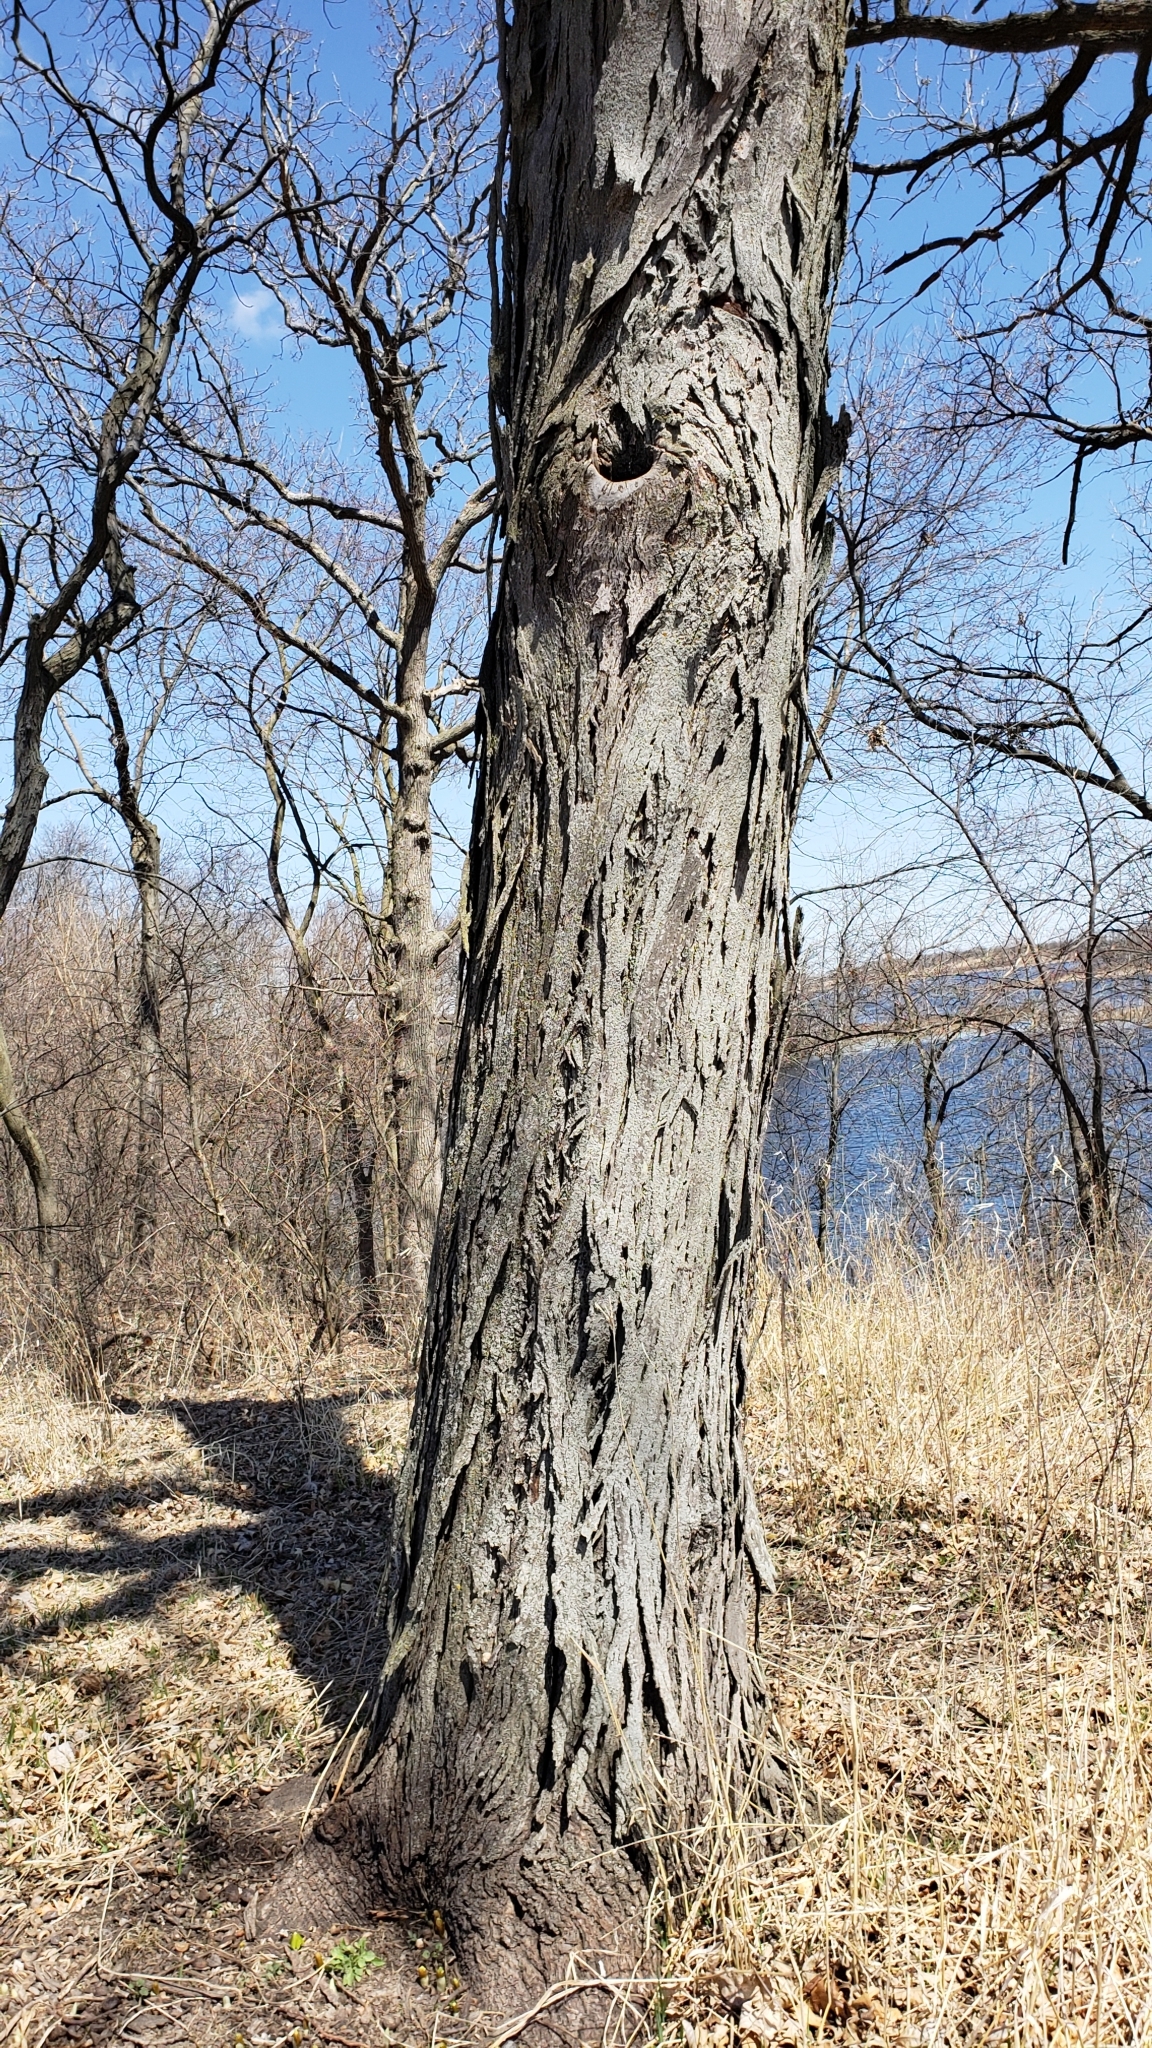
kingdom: Plantae
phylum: Tracheophyta
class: Magnoliopsida
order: Fagales
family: Juglandaceae
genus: Carya
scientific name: Carya ovata
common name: Shagbark hickory
